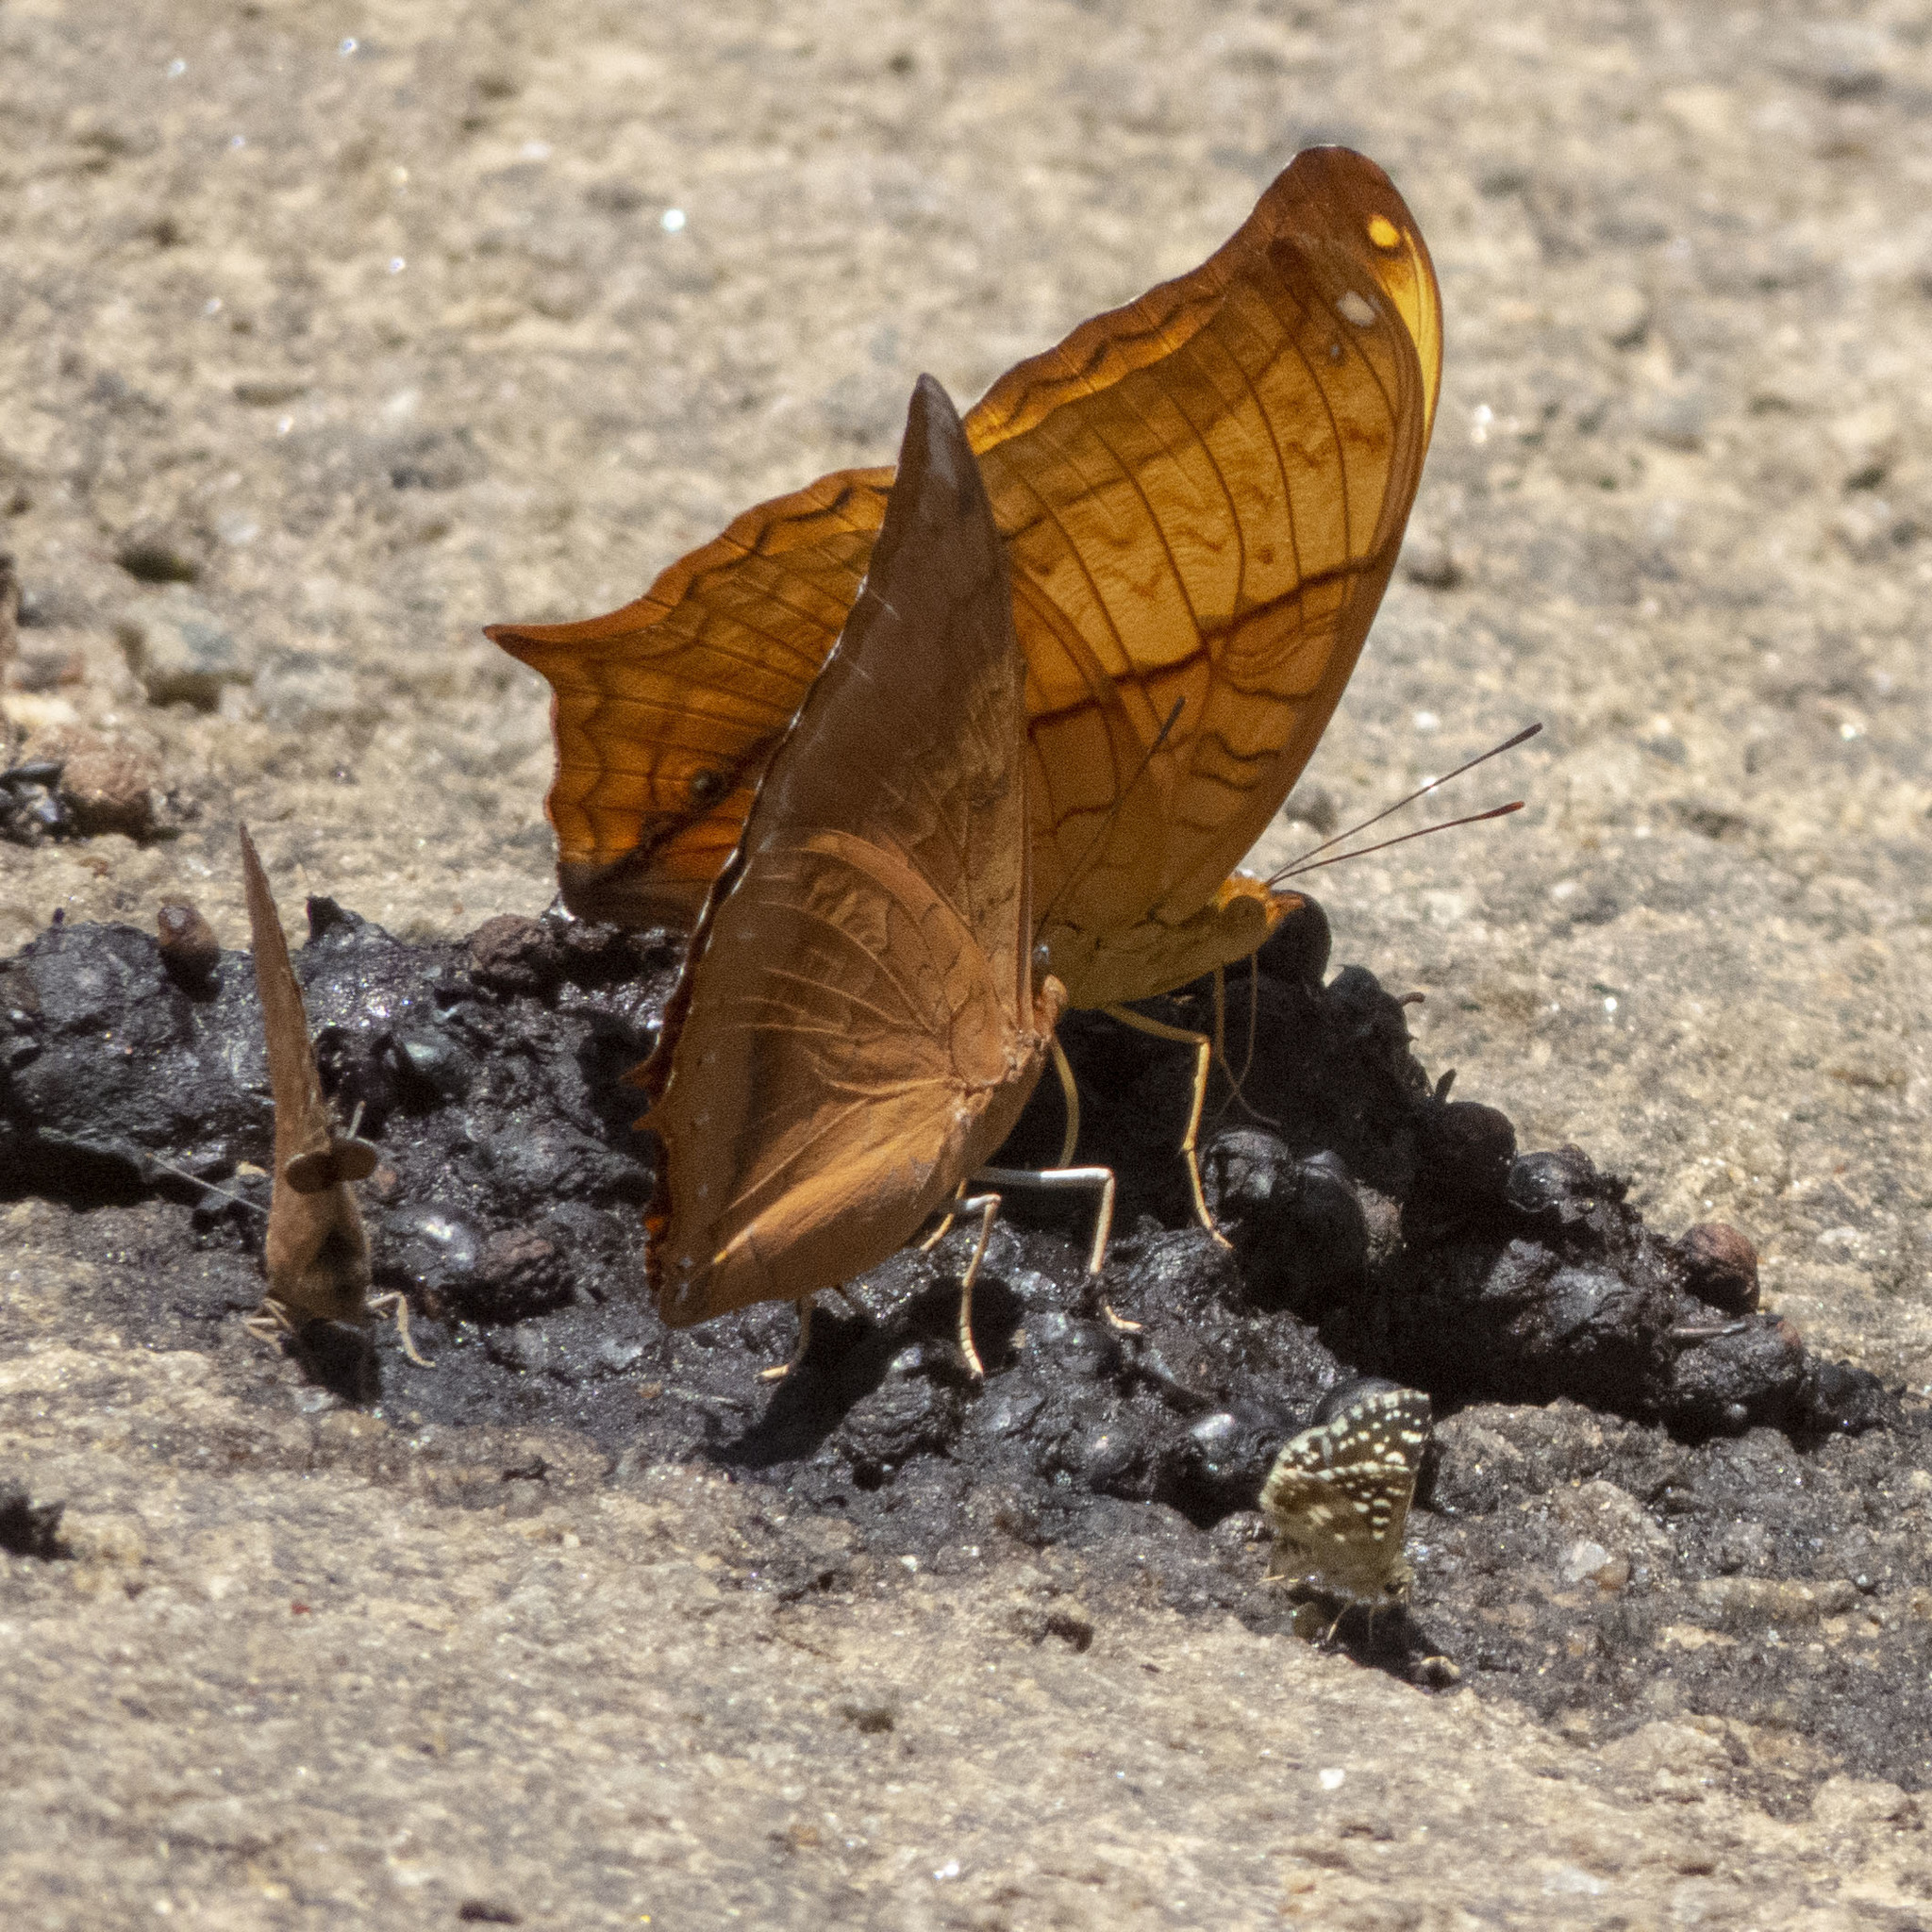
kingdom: Animalia
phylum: Arthropoda
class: Insecta
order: Lepidoptera
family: Nymphalidae
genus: Vindula
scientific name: Vindula erota
